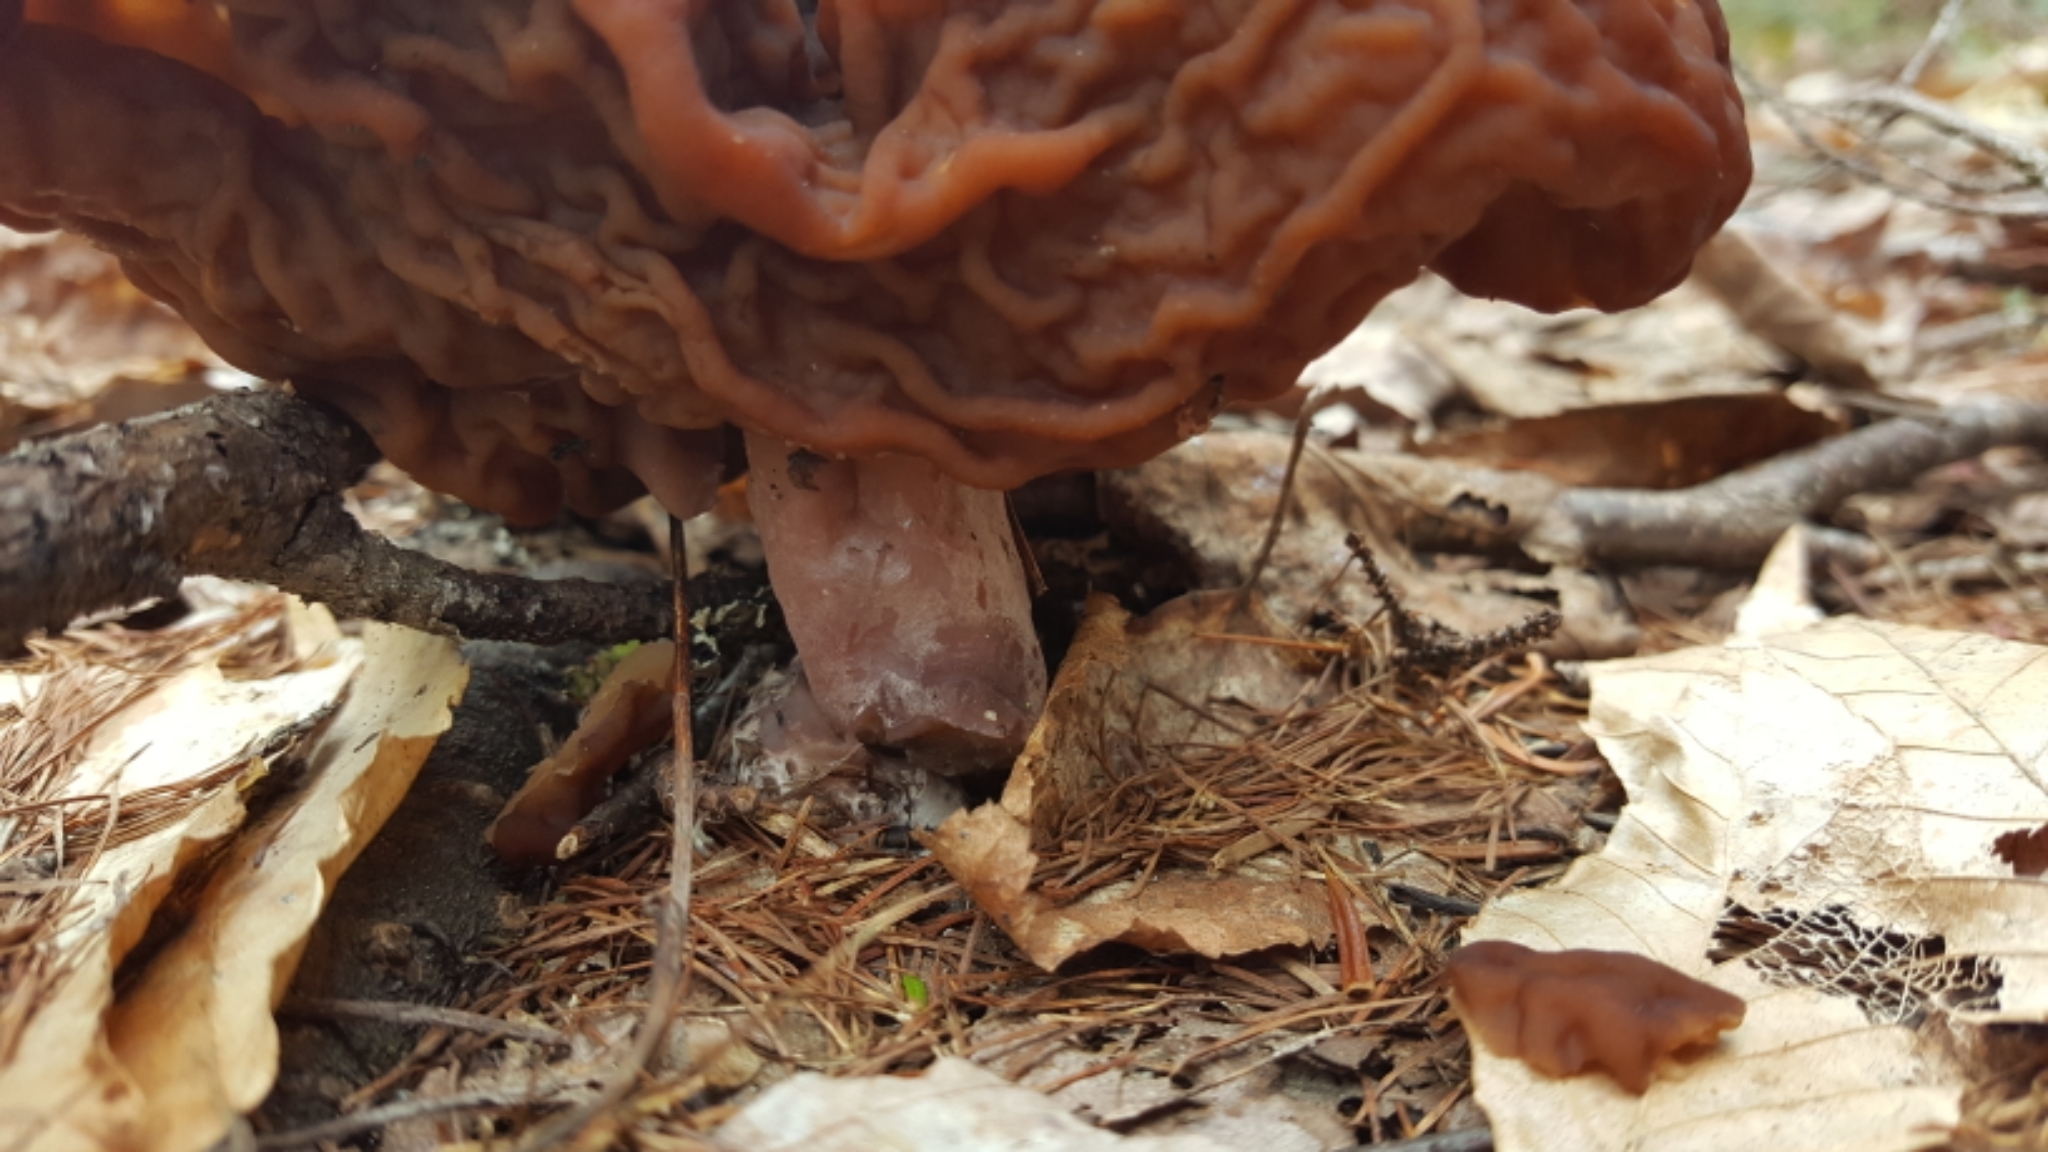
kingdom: Fungi
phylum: Ascomycota
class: Pezizomycetes
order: Pezizales
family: Discinaceae
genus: Gyromitra
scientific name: Gyromitra esculenta
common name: False morel
